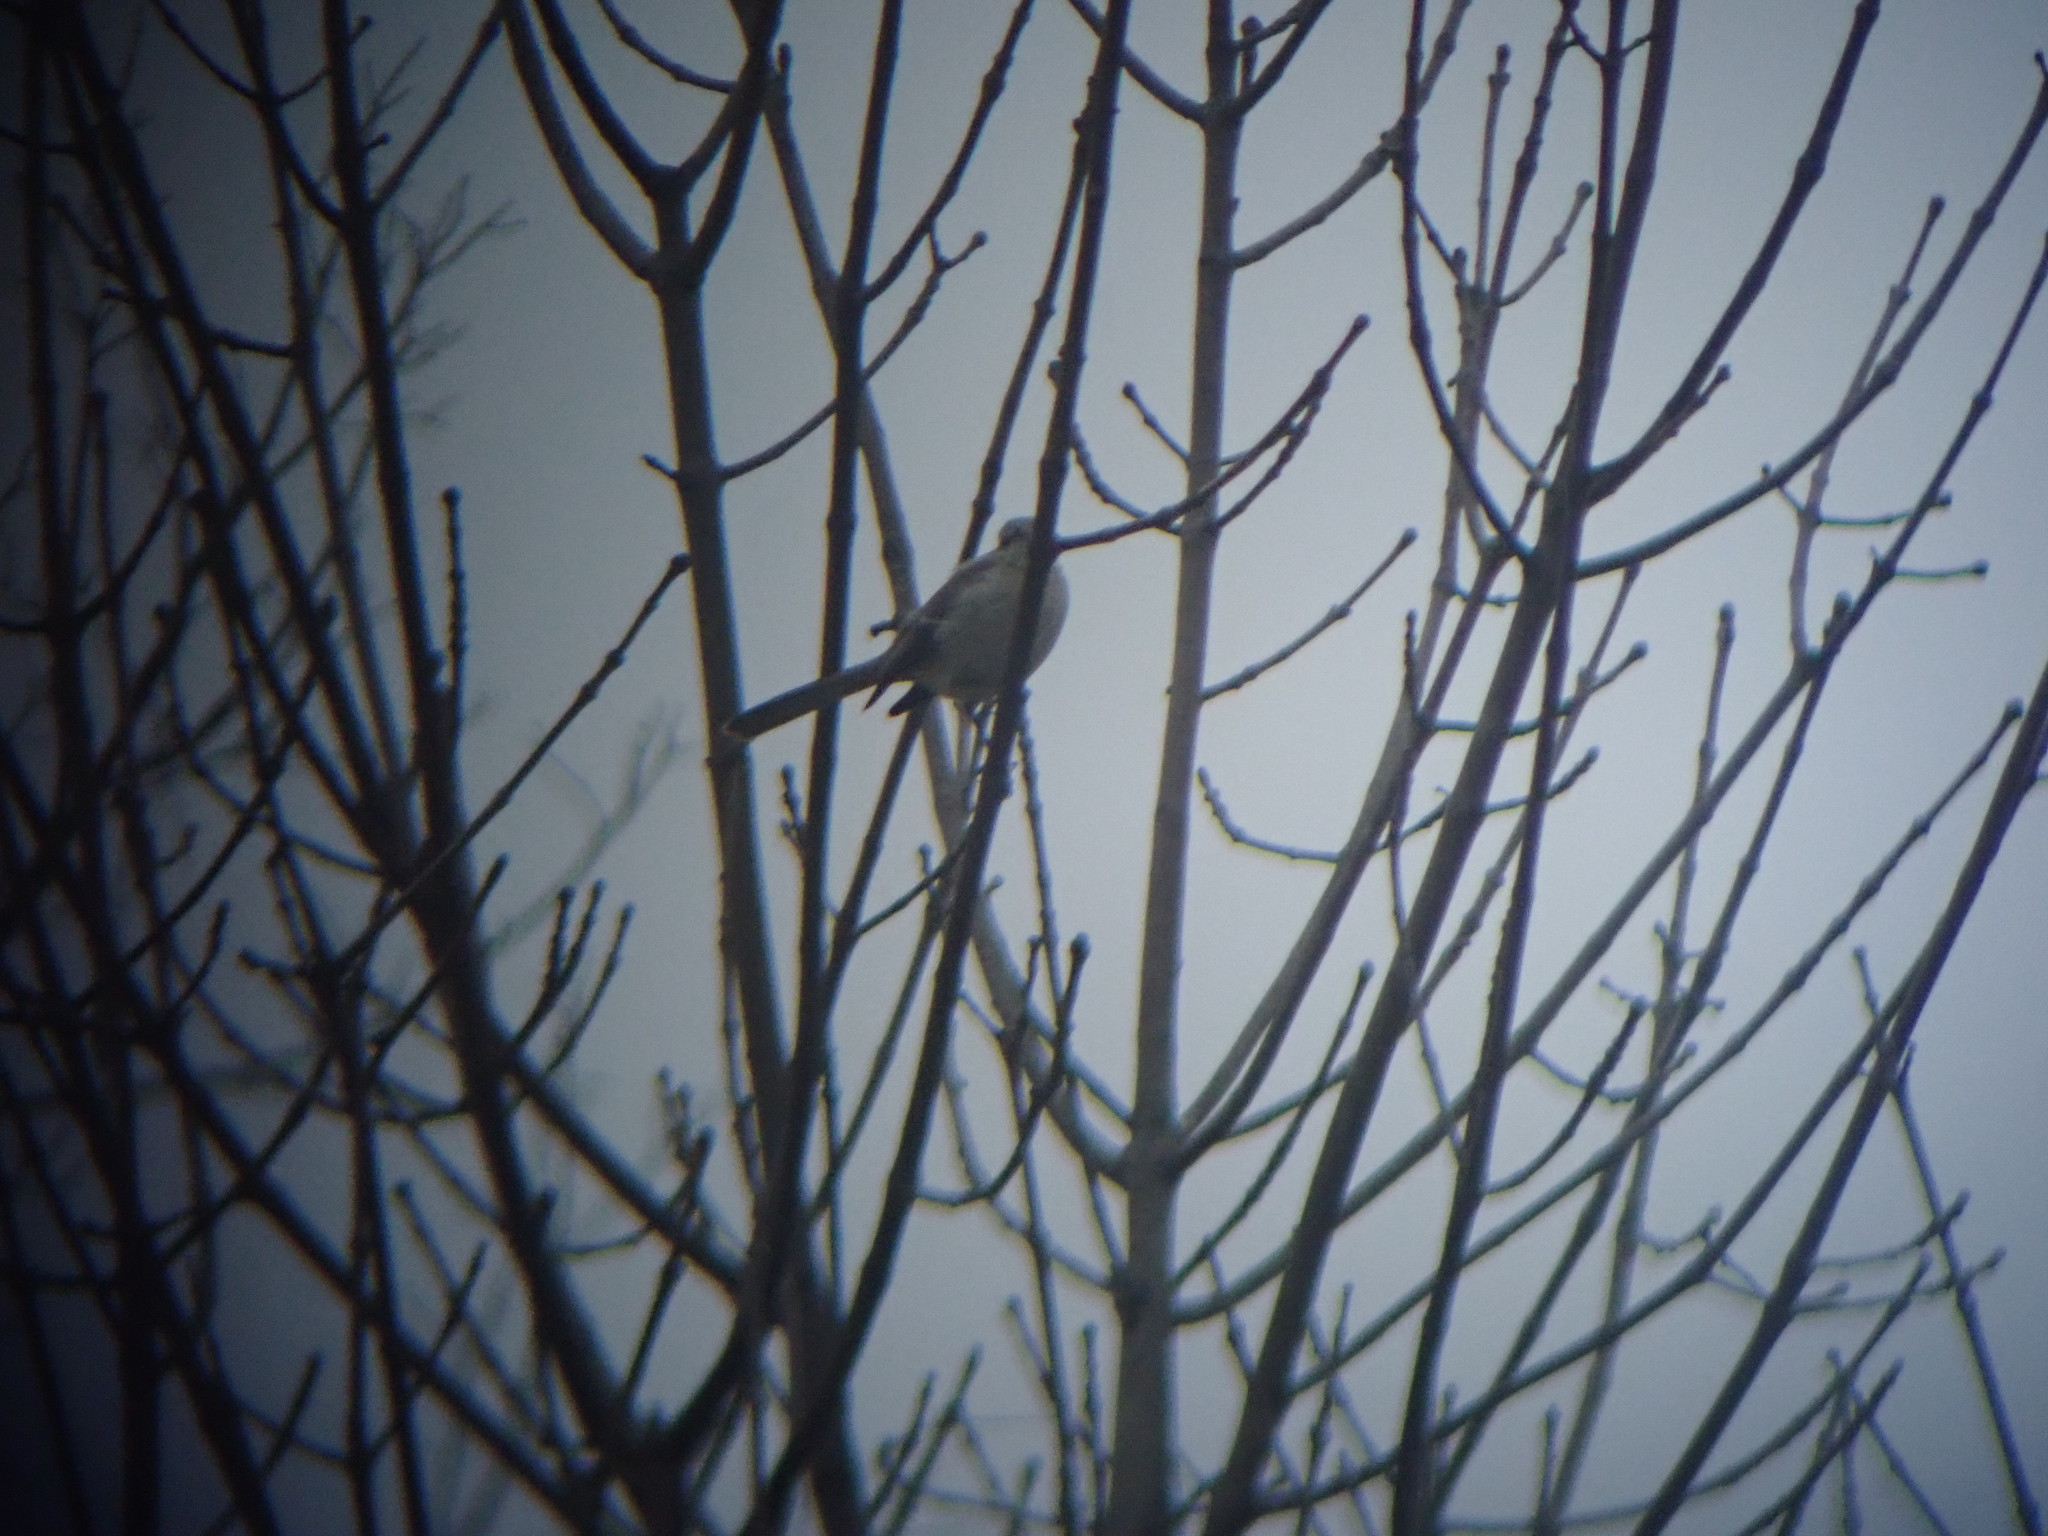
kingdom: Animalia
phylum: Chordata
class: Aves
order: Passeriformes
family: Mimidae
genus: Mimus
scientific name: Mimus polyglottos
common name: Northern mockingbird
